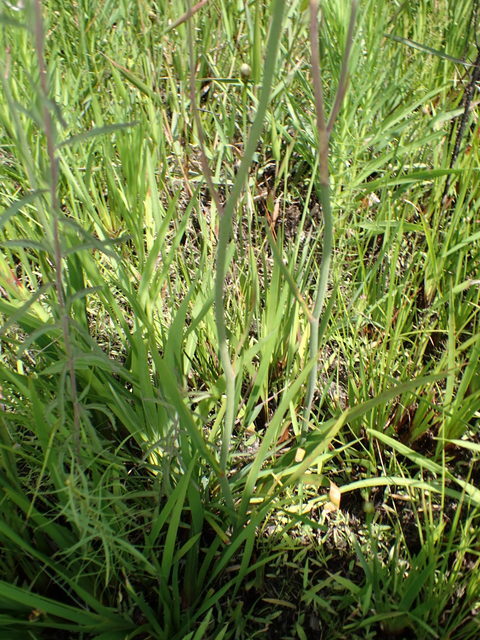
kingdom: Plantae
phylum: Tracheophyta
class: Liliopsida
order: Dioscoreales
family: Nartheciaceae
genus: Lophiola
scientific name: Lophiola aurea
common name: Golden-crest
